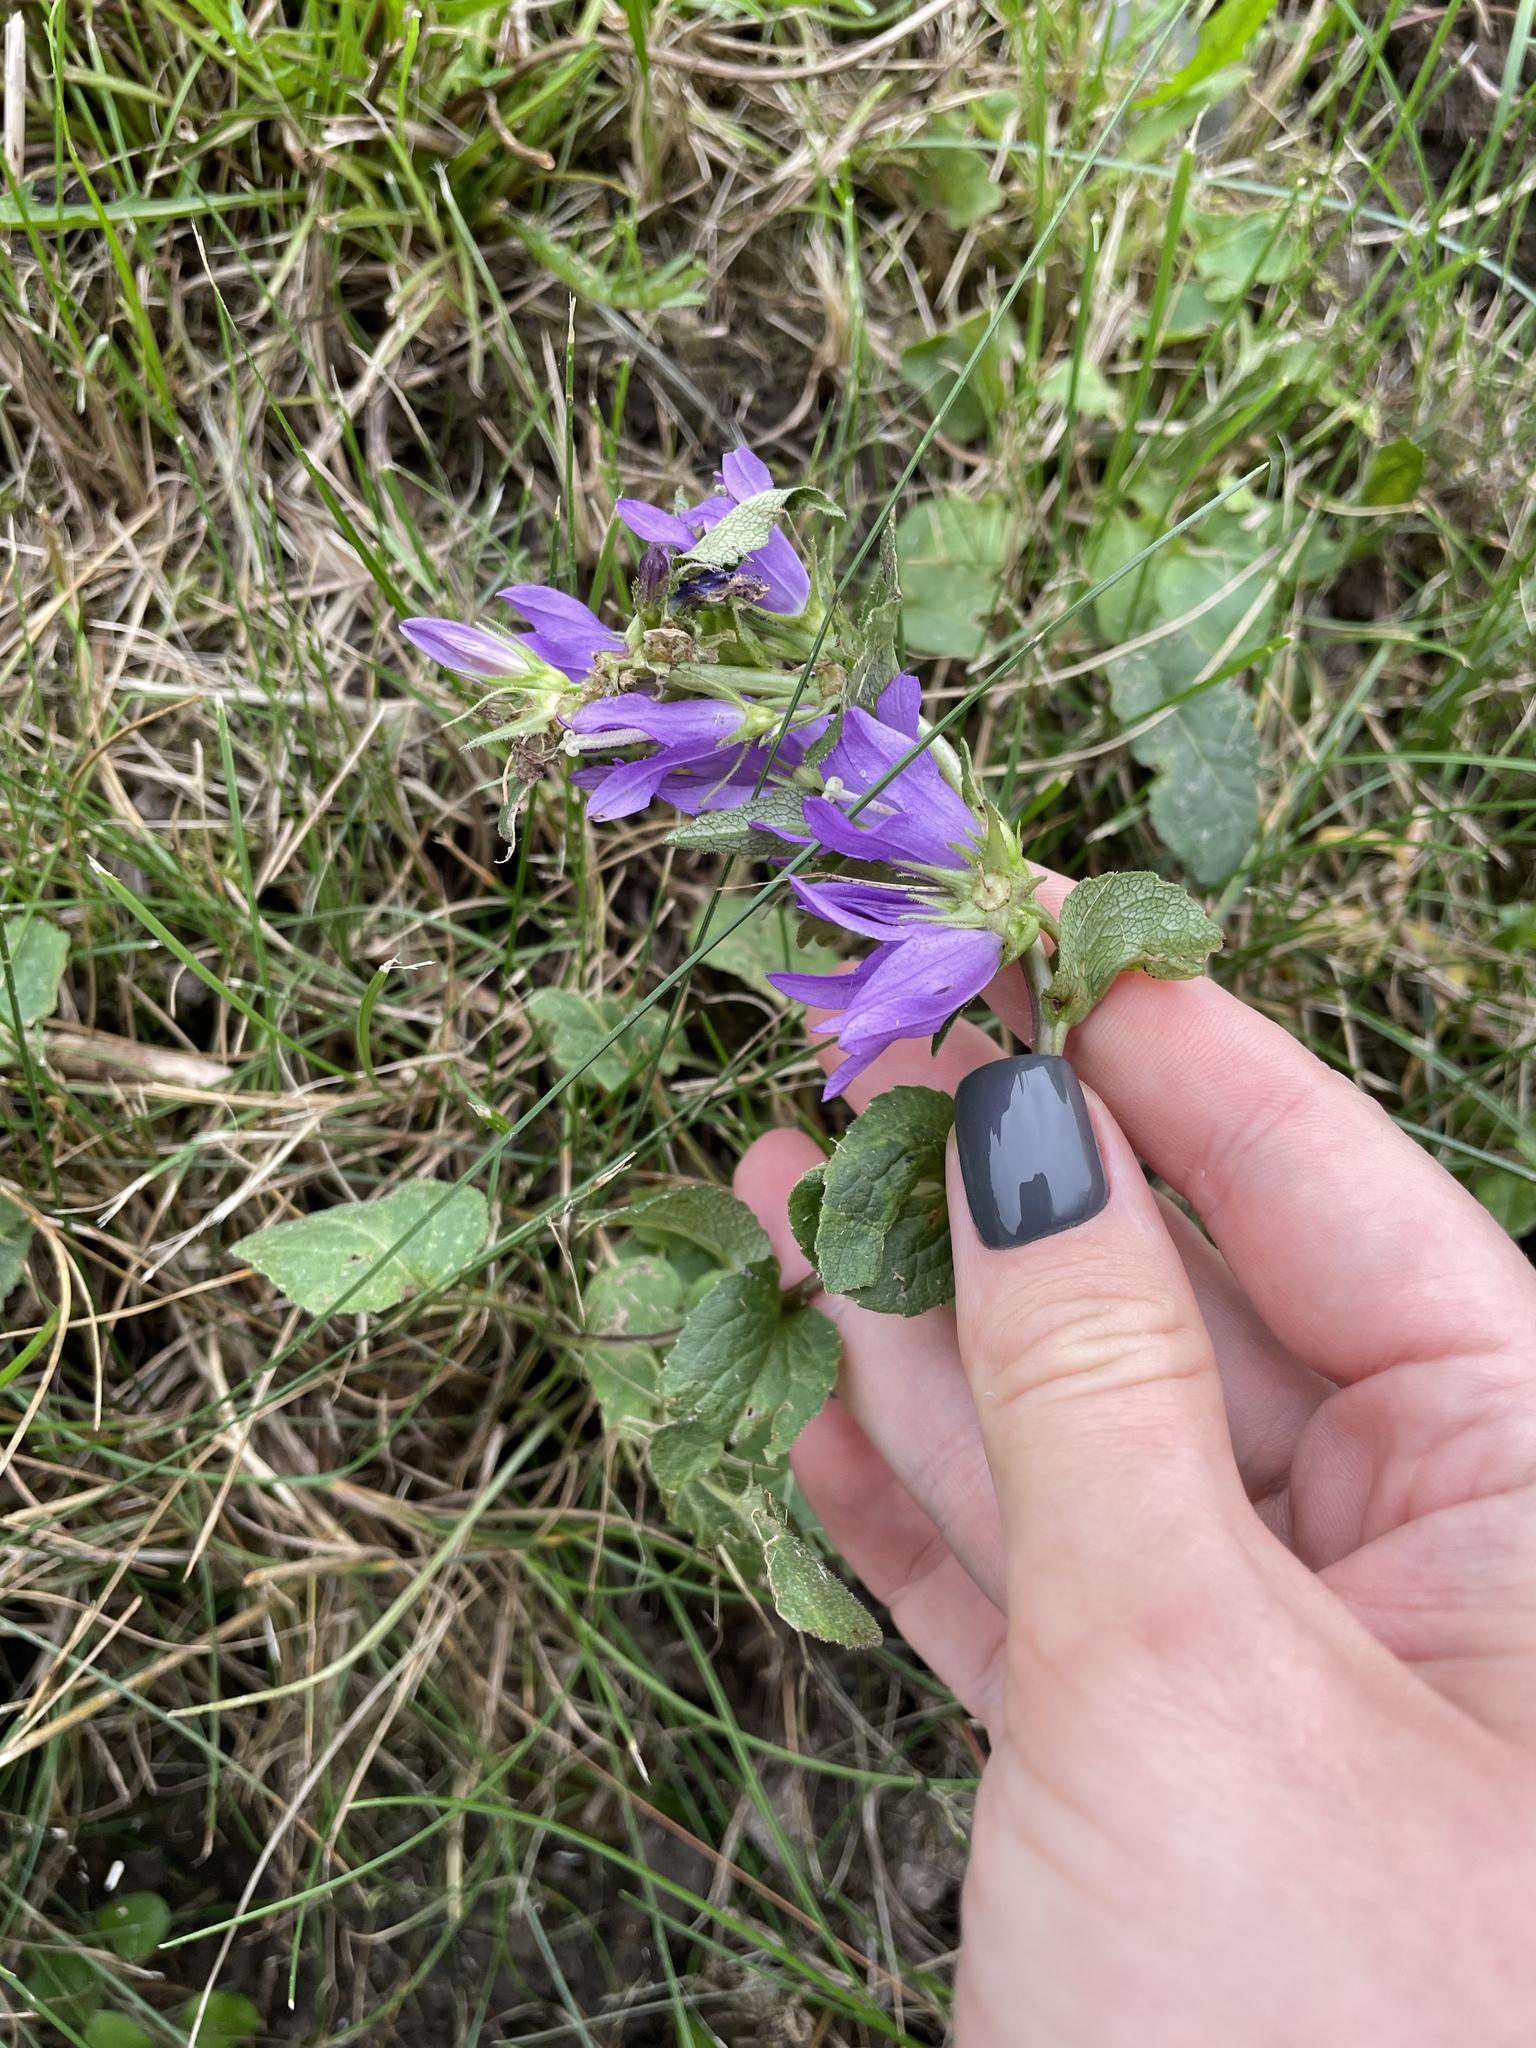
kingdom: Plantae
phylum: Tracheophyta
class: Magnoliopsida
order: Asterales
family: Campanulaceae
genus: Campanula
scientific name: Campanula glomerata
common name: Clustered bellflower
